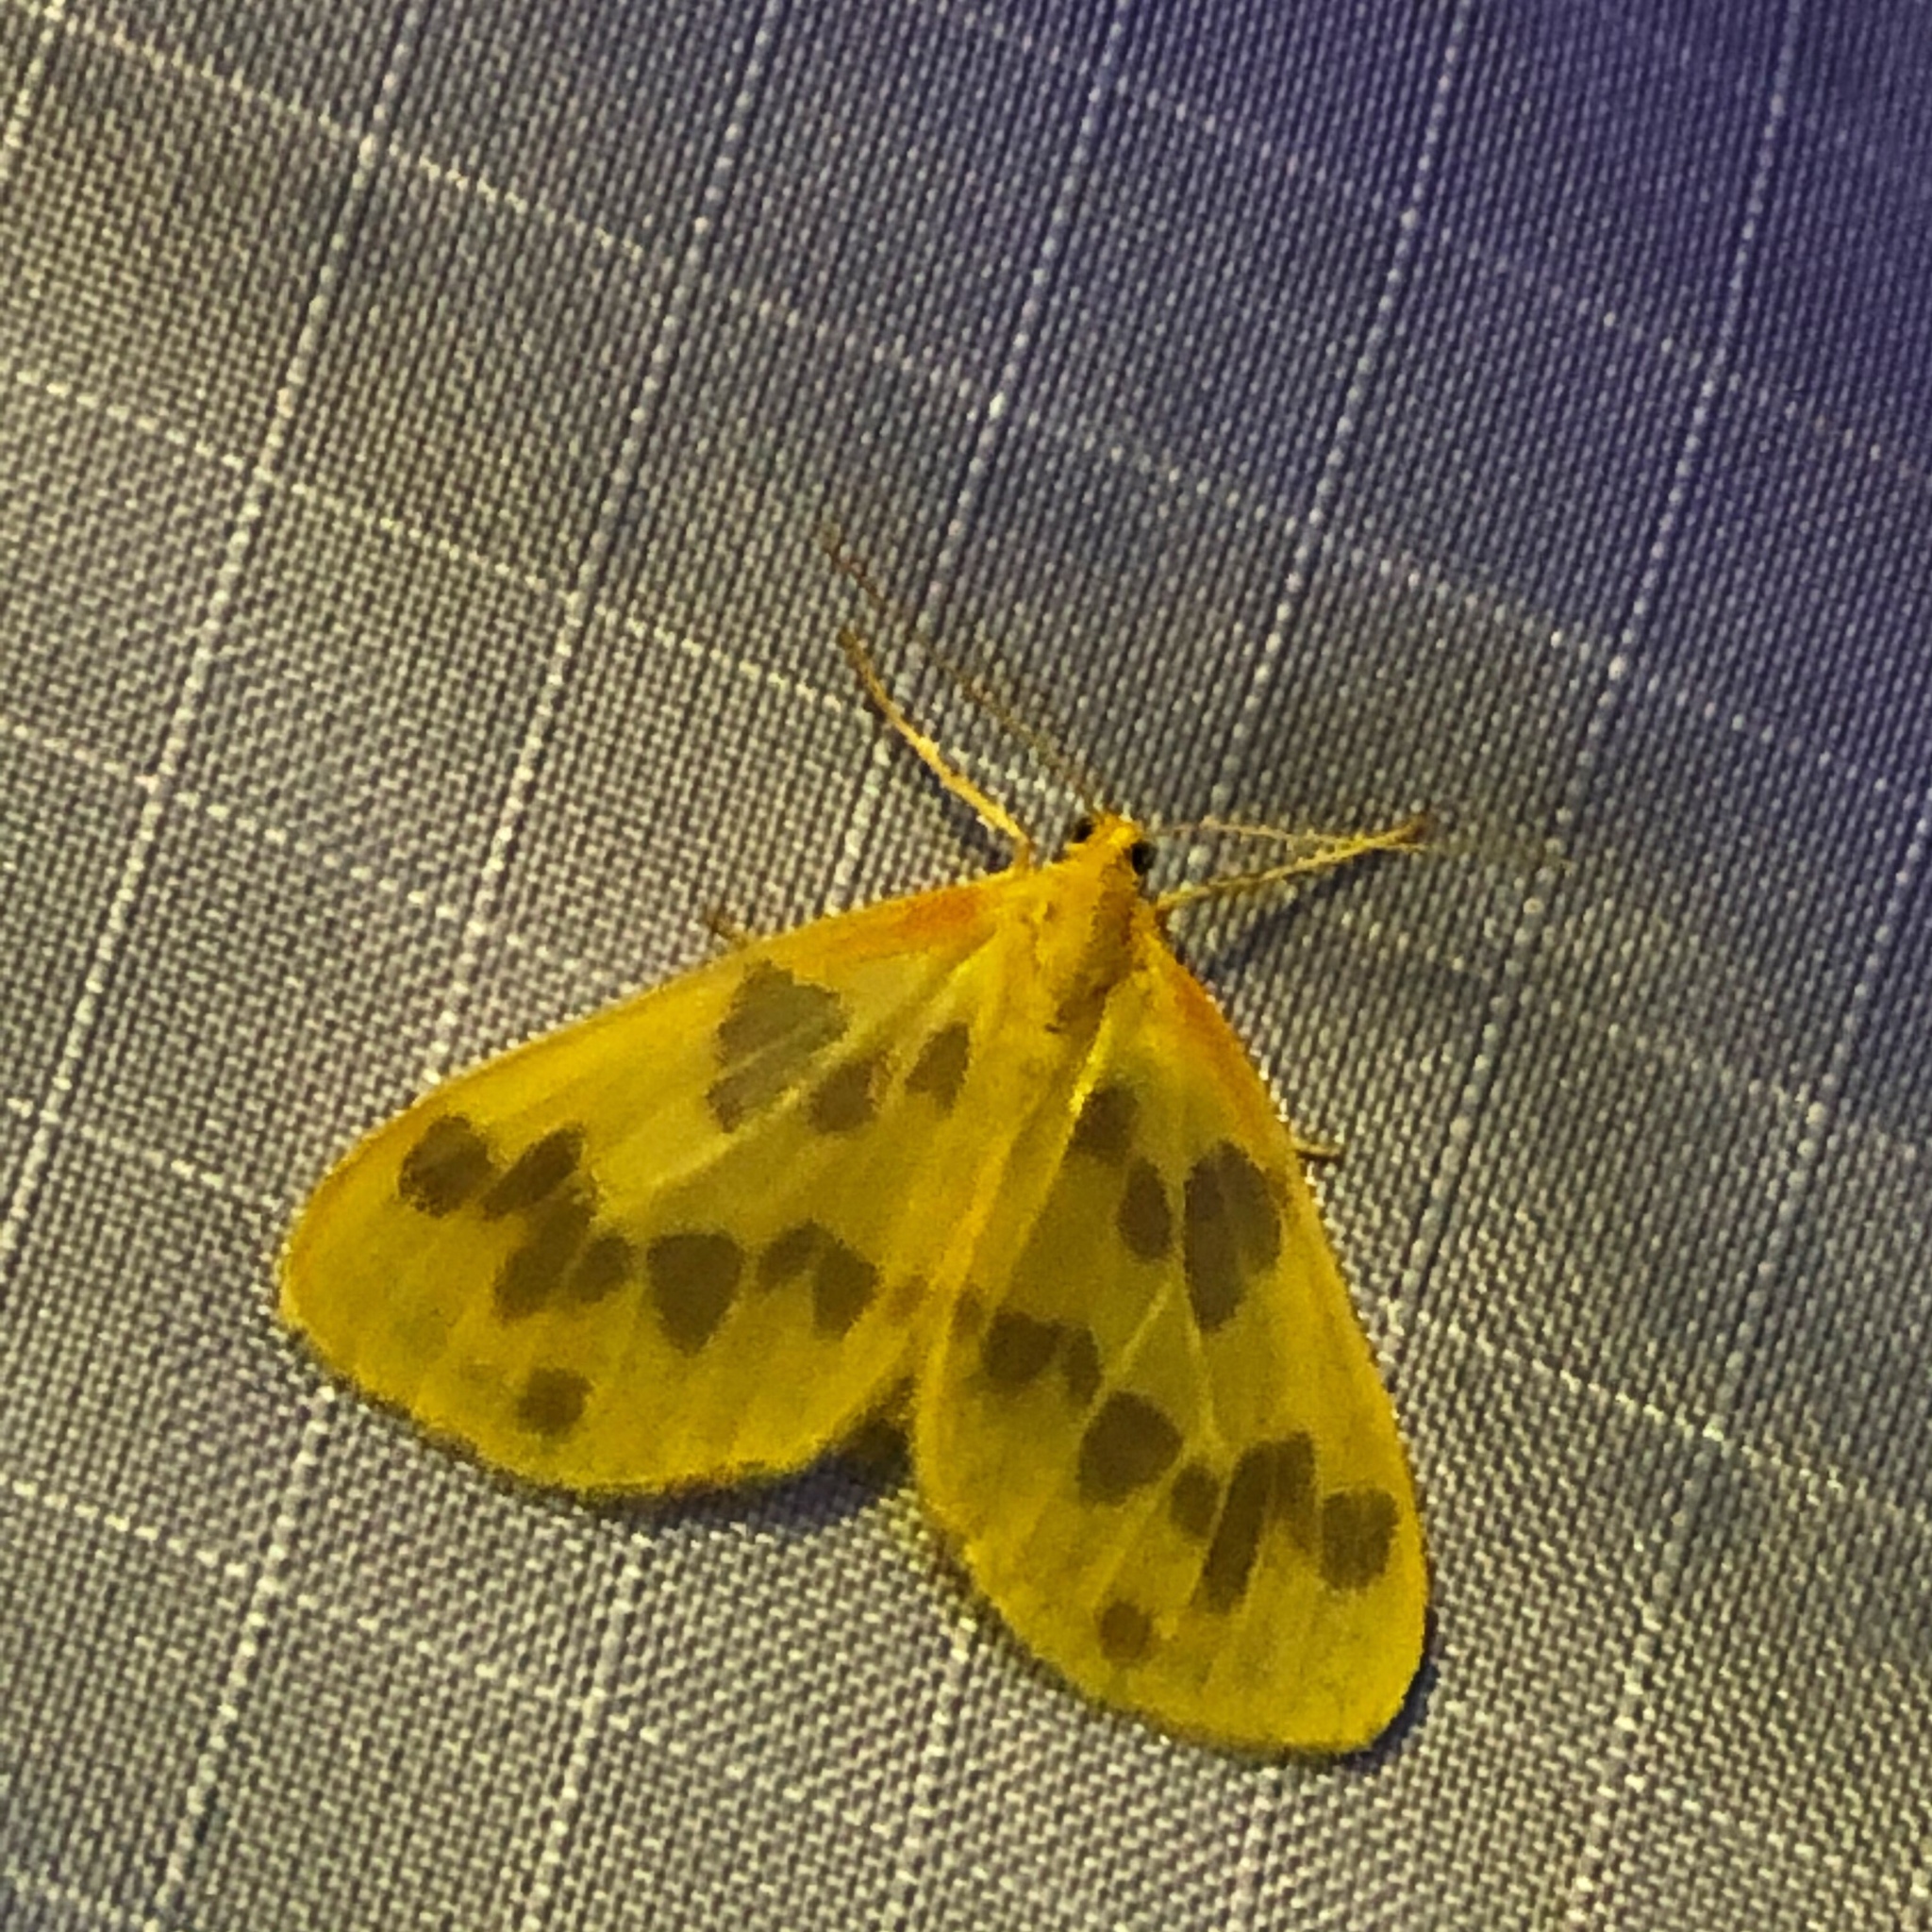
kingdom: Animalia
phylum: Arthropoda
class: Insecta
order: Lepidoptera
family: Geometridae
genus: Eubaphe
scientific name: Eubaphe mendica
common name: Beggar
